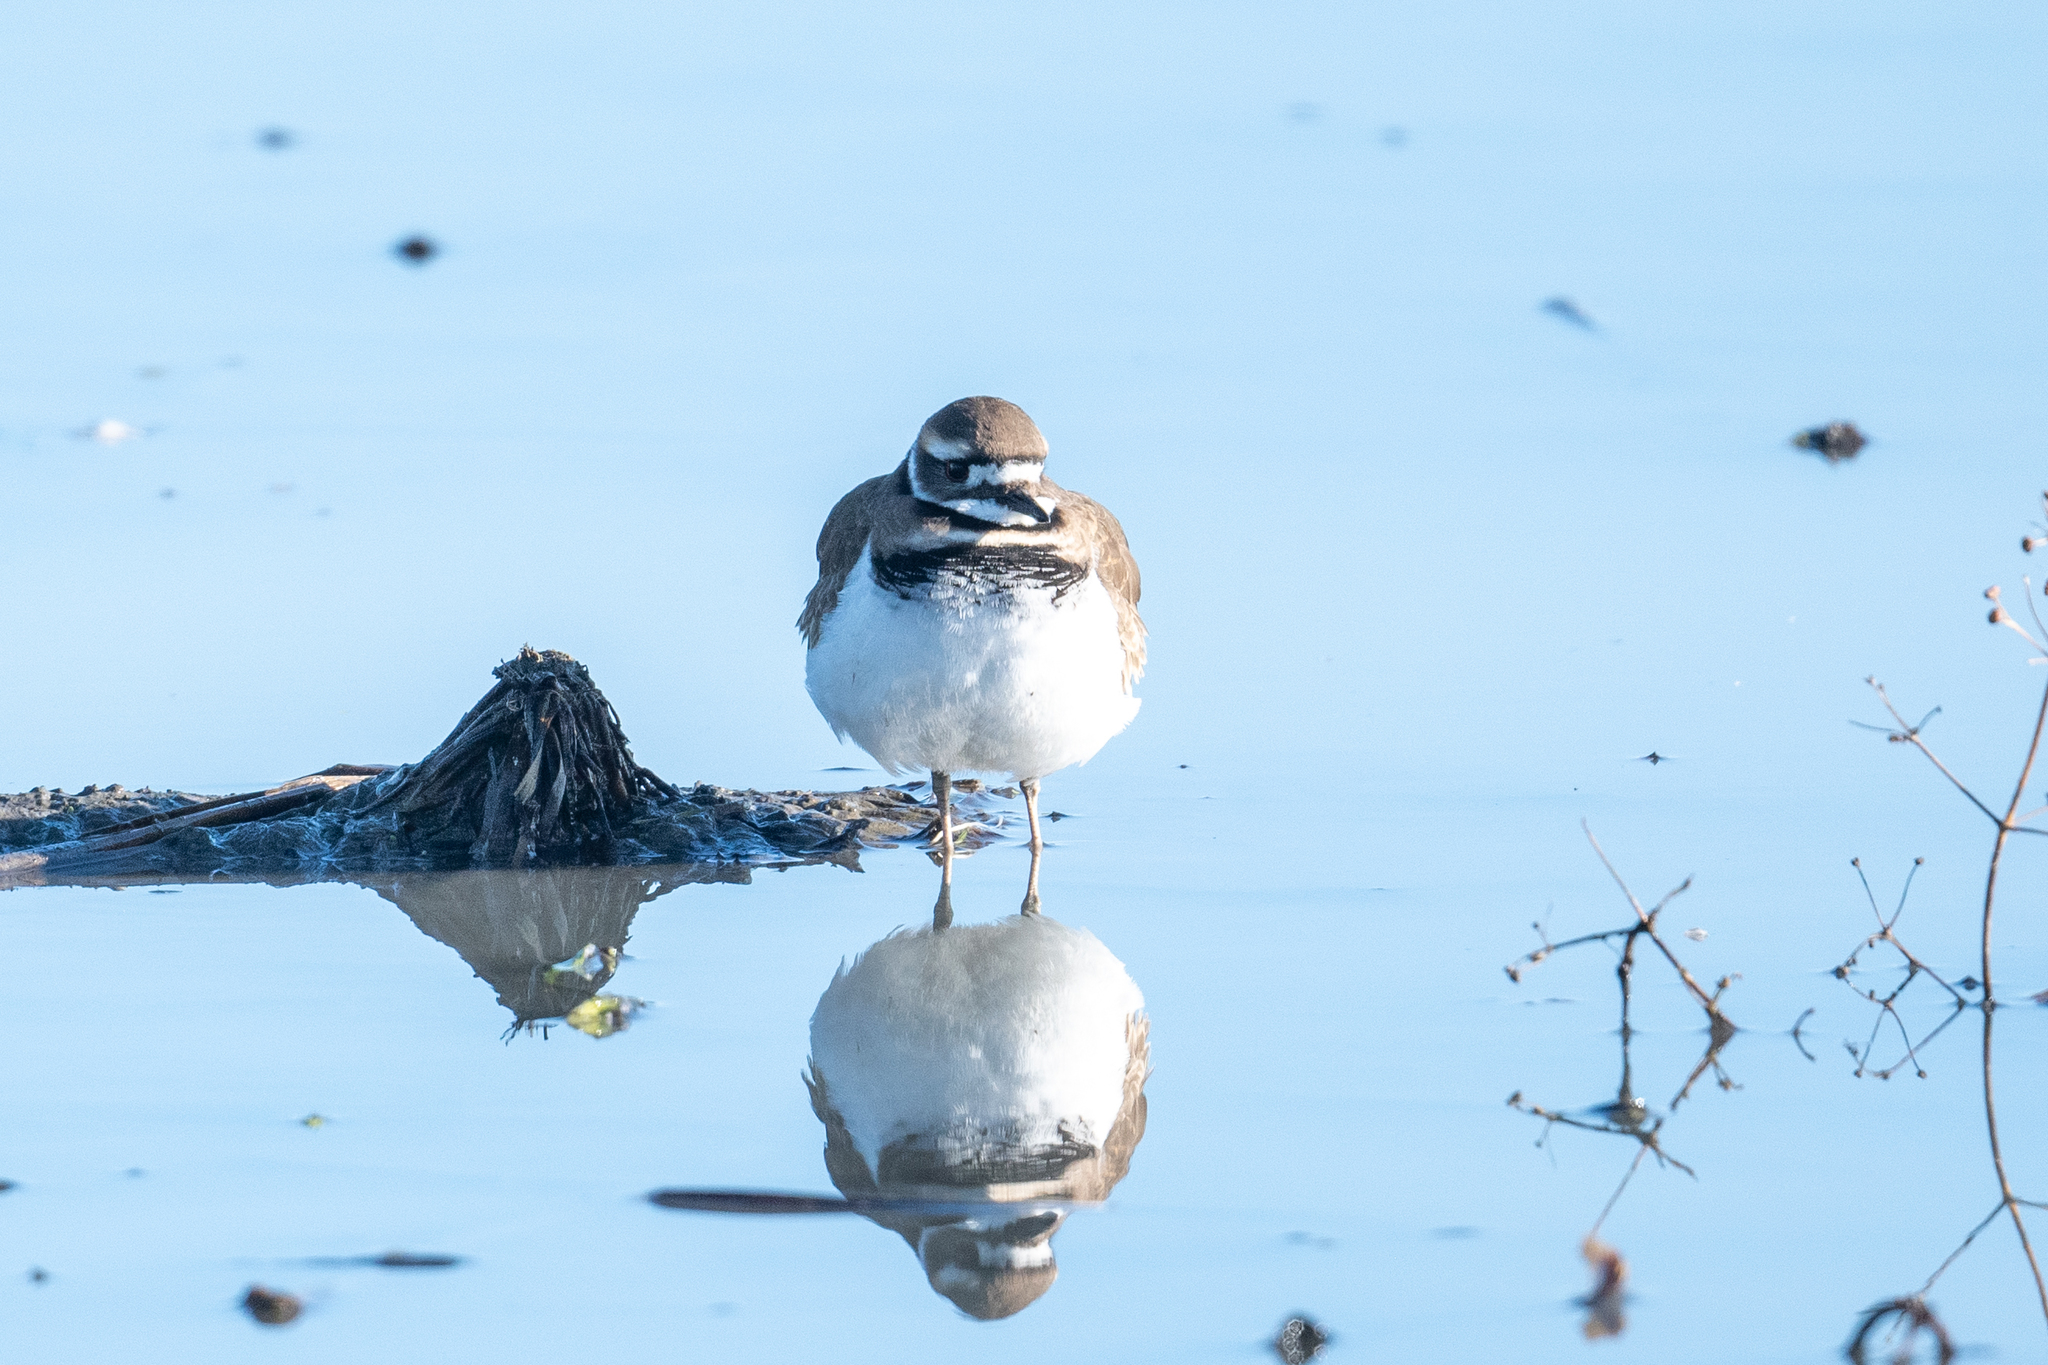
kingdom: Animalia
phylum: Chordata
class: Aves
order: Charadriiformes
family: Charadriidae
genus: Charadrius
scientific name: Charadrius vociferus
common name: Killdeer
